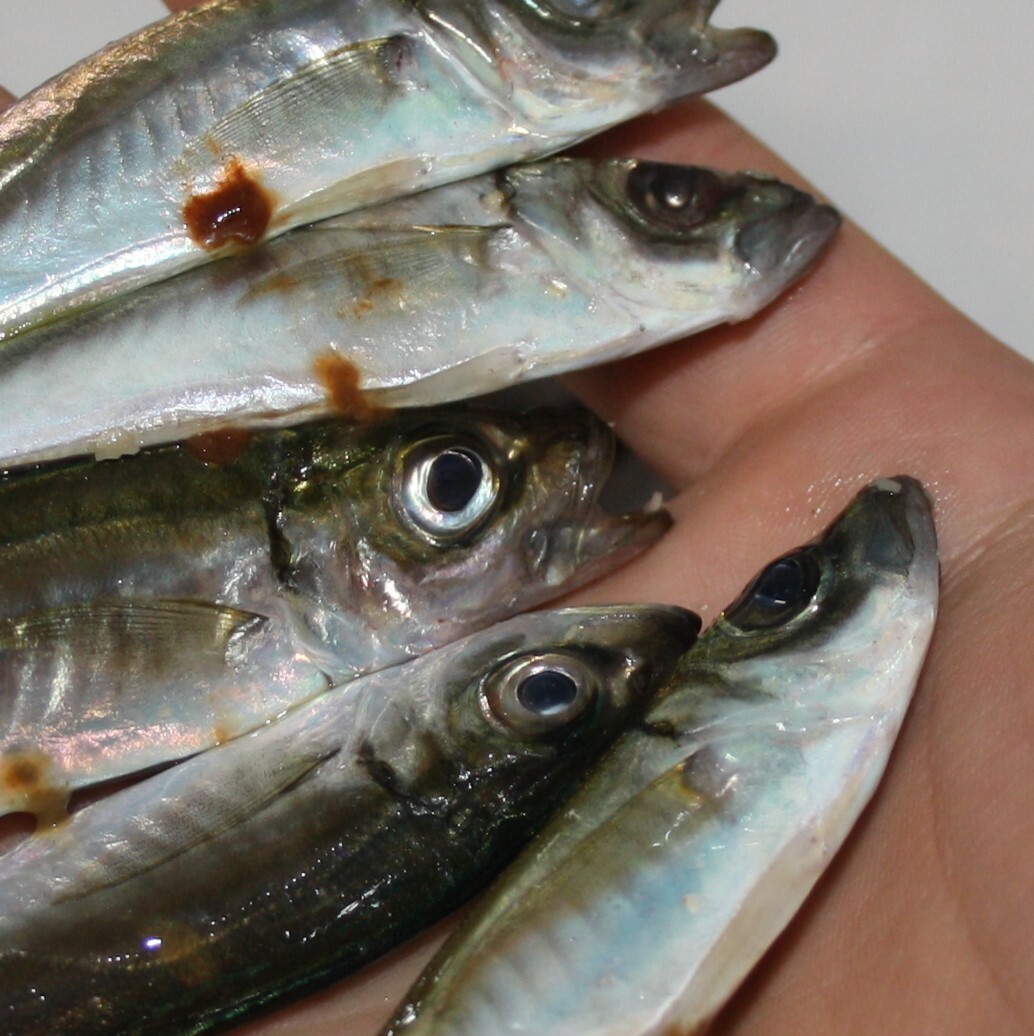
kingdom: Animalia
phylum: Chordata
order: Perciformes
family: Carangidae
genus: Trachurus
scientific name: Trachurus
